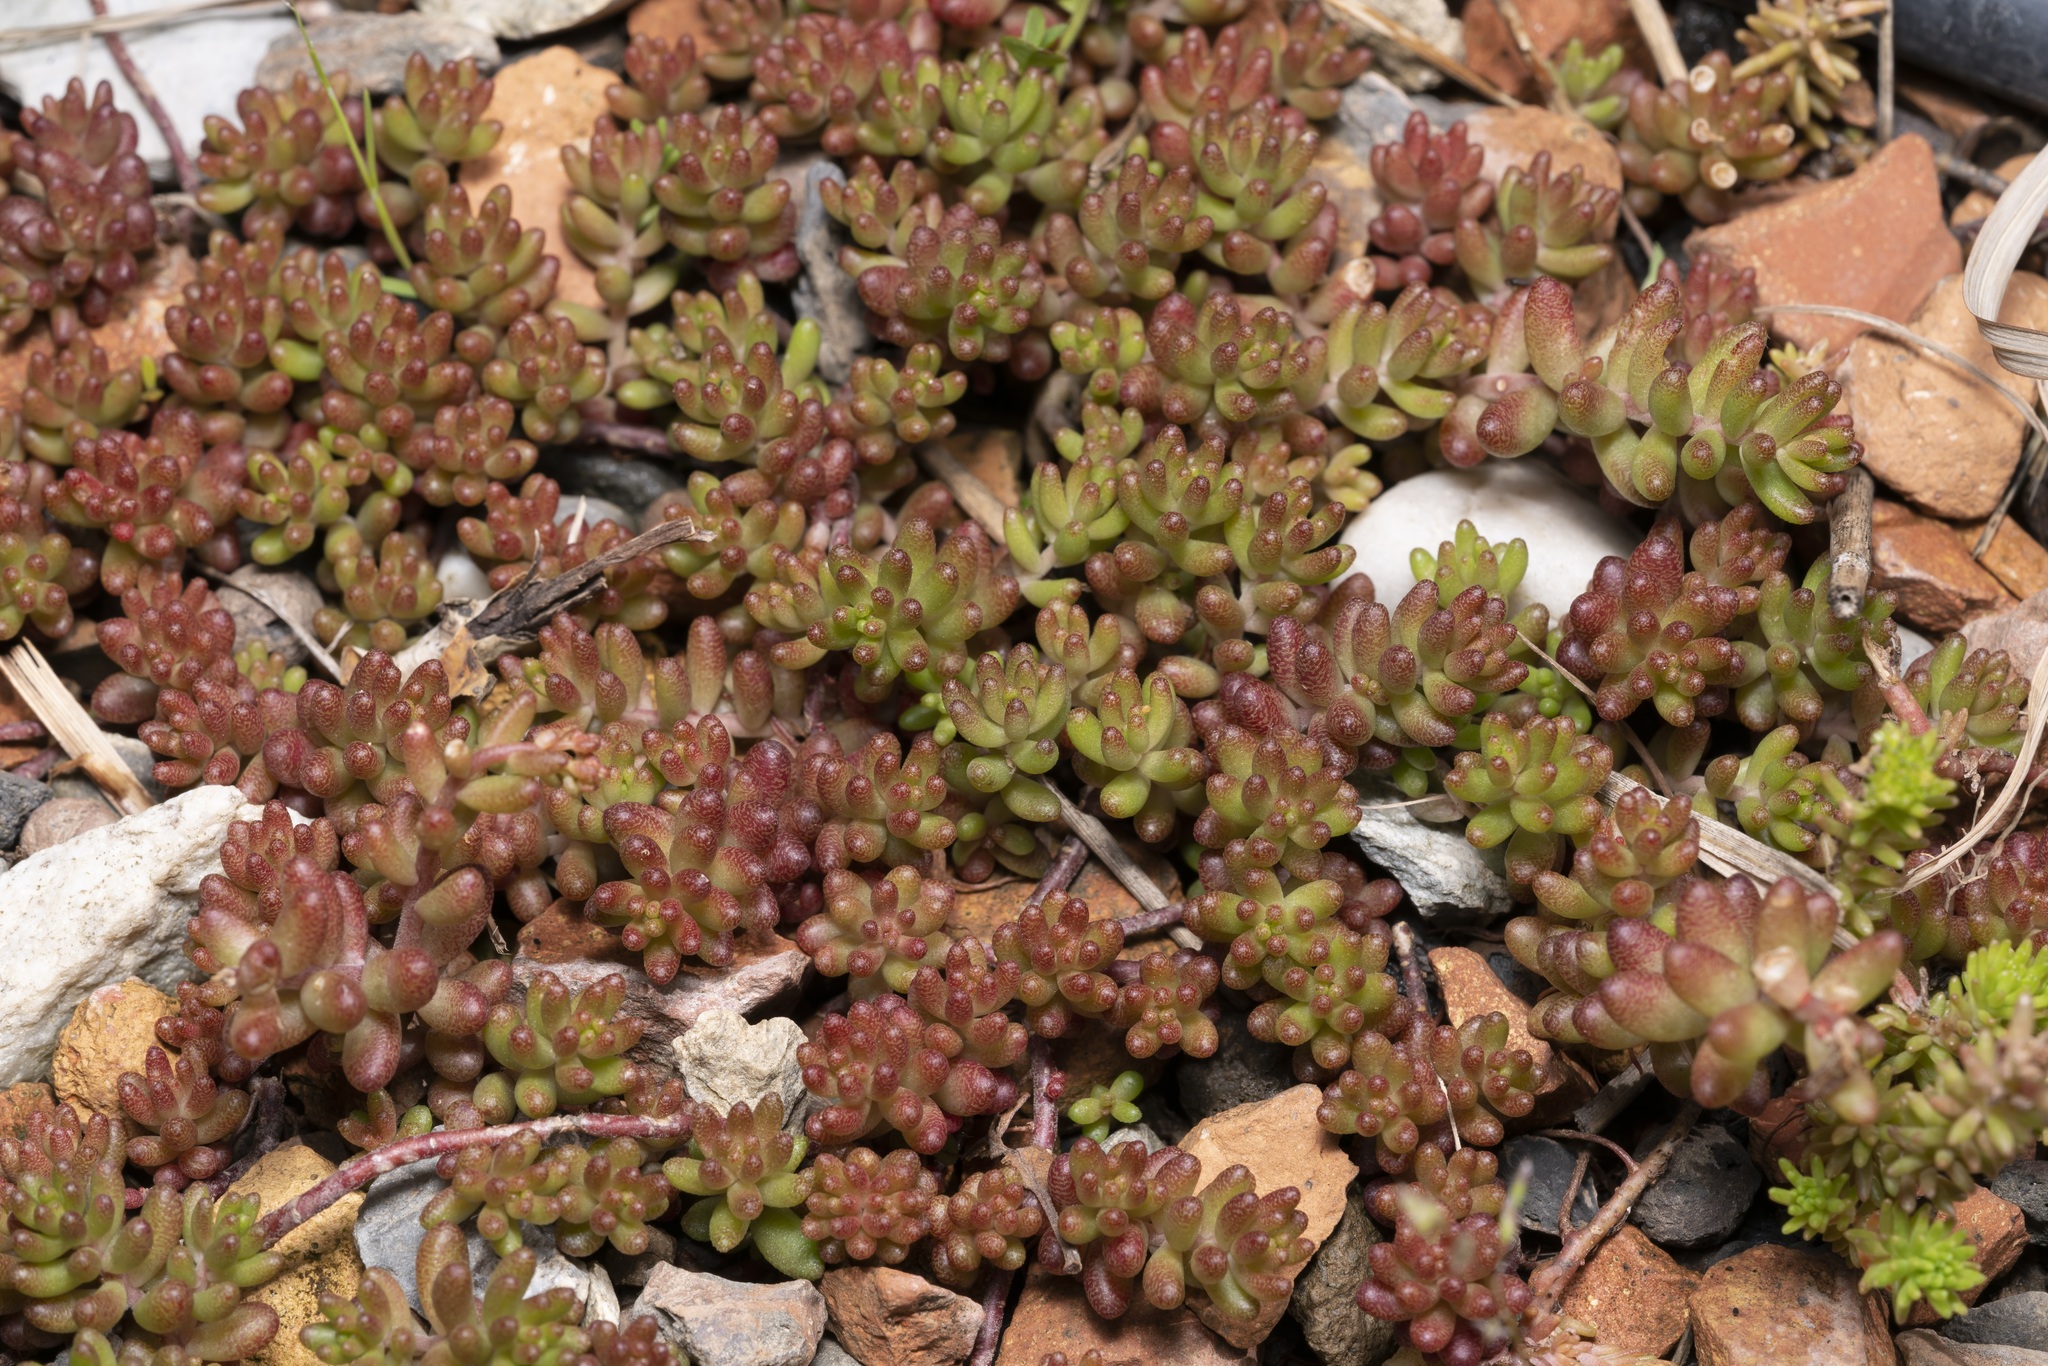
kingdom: Plantae
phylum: Tracheophyta
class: Magnoliopsida
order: Saxifragales
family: Crassulaceae
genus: Sedum
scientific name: Sedum album
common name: White stonecrop
